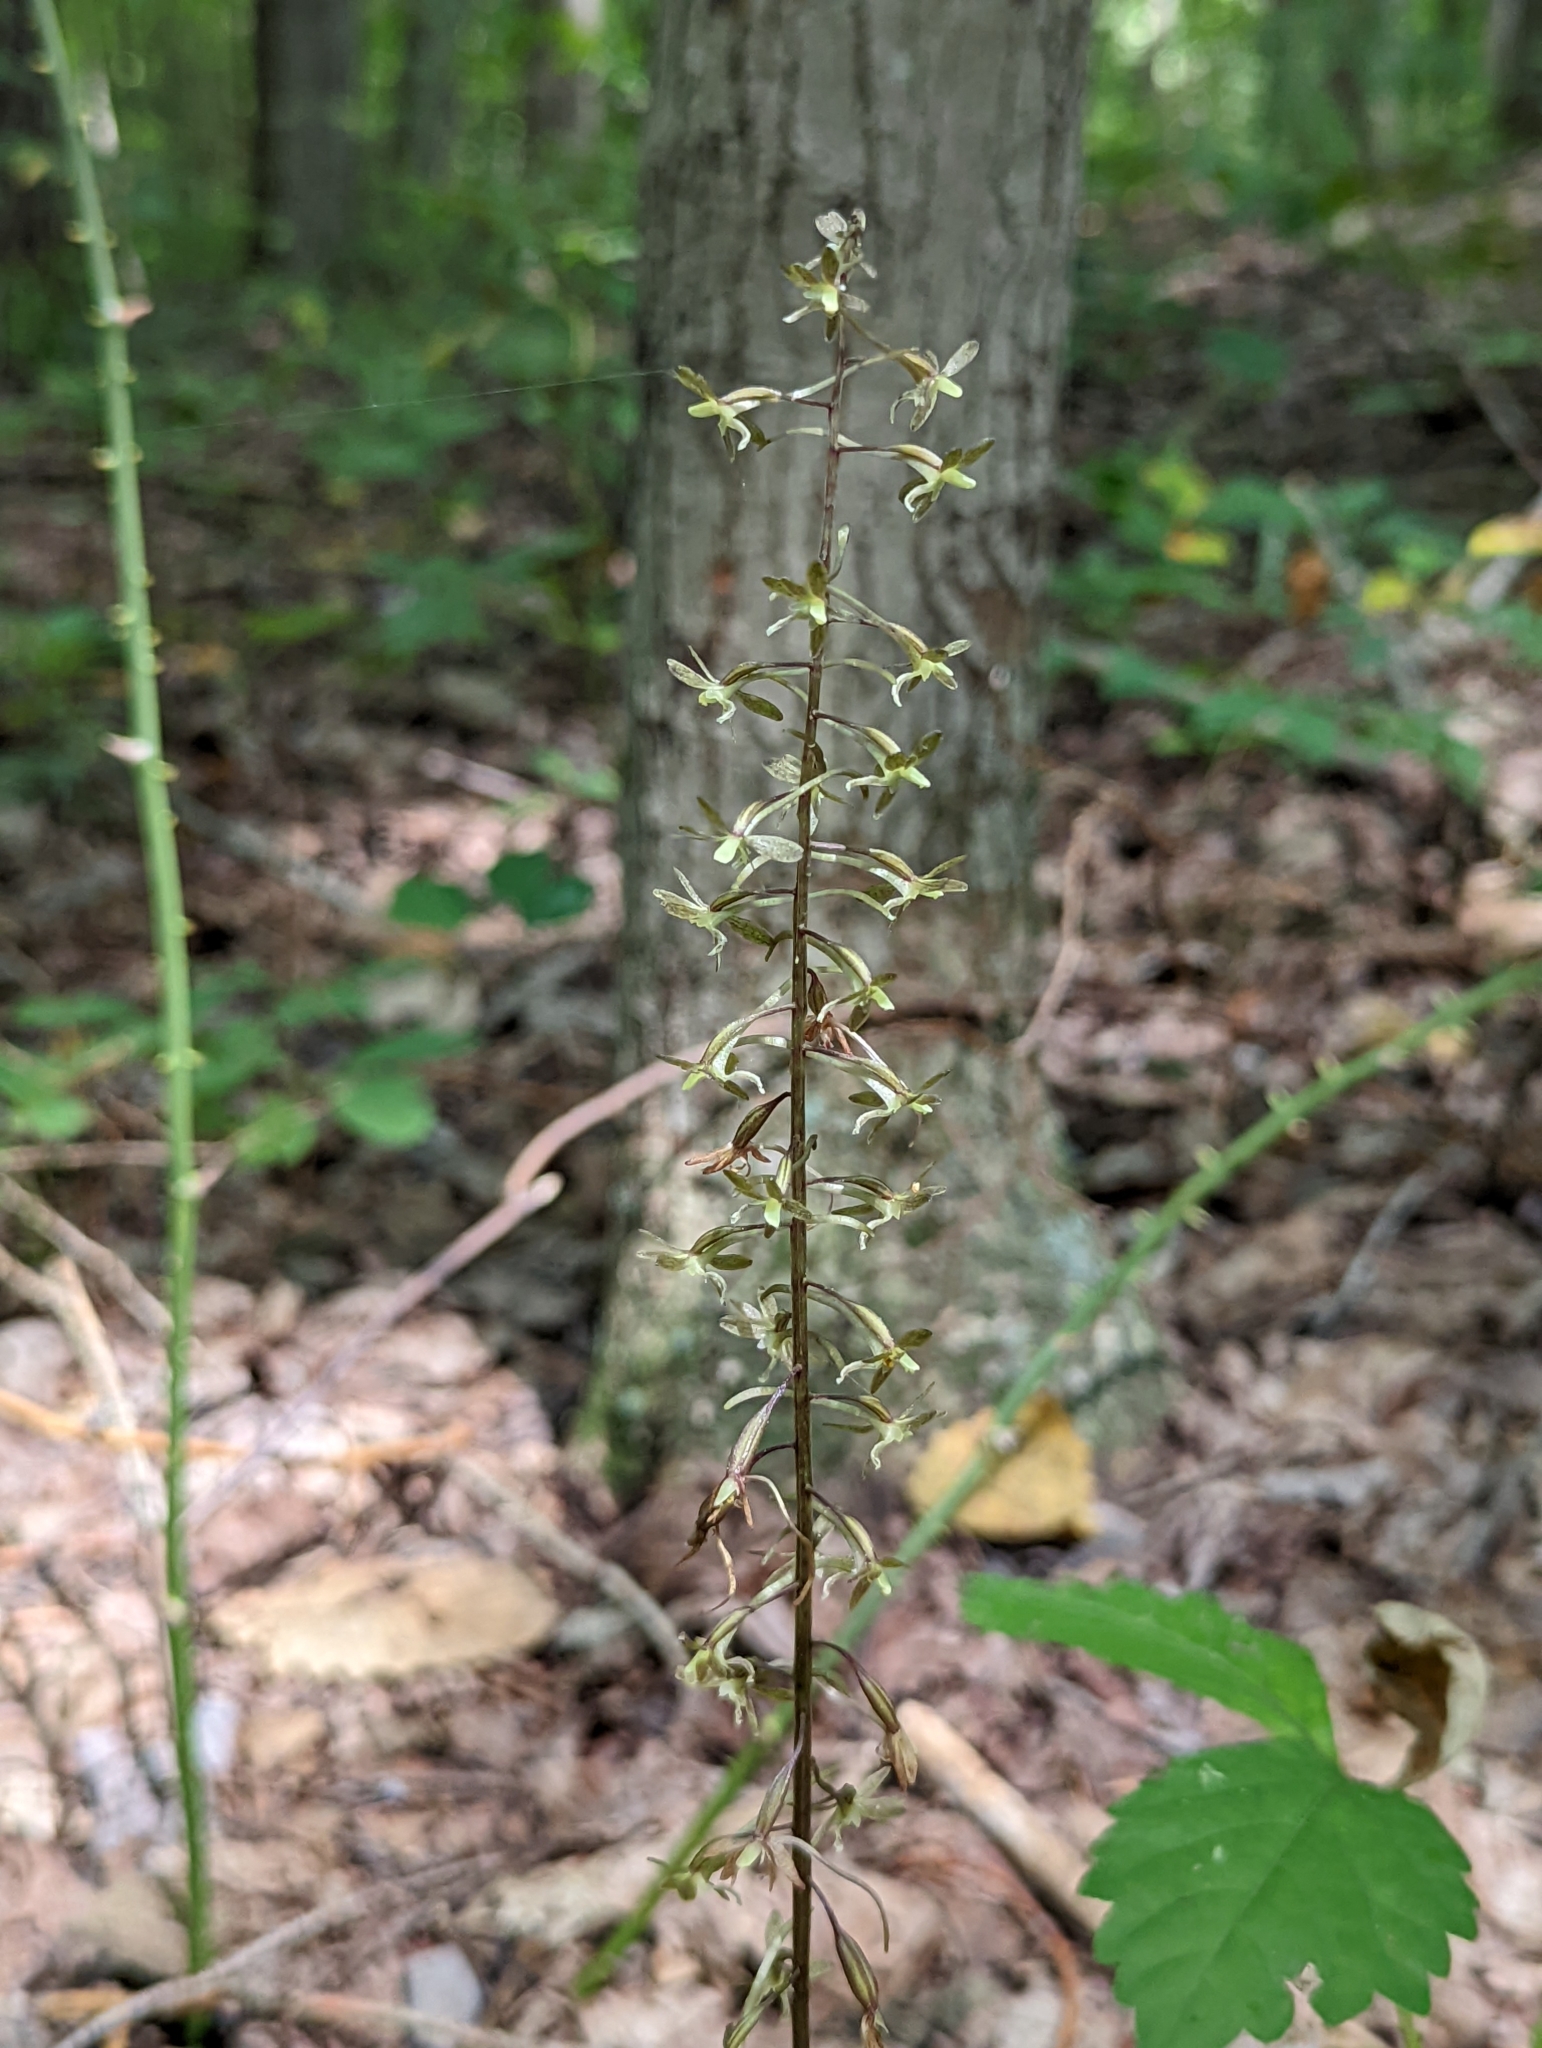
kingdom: Plantae
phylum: Tracheophyta
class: Liliopsida
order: Asparagales
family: Orchidaceae
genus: Tipularia
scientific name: Tipularia discolor
